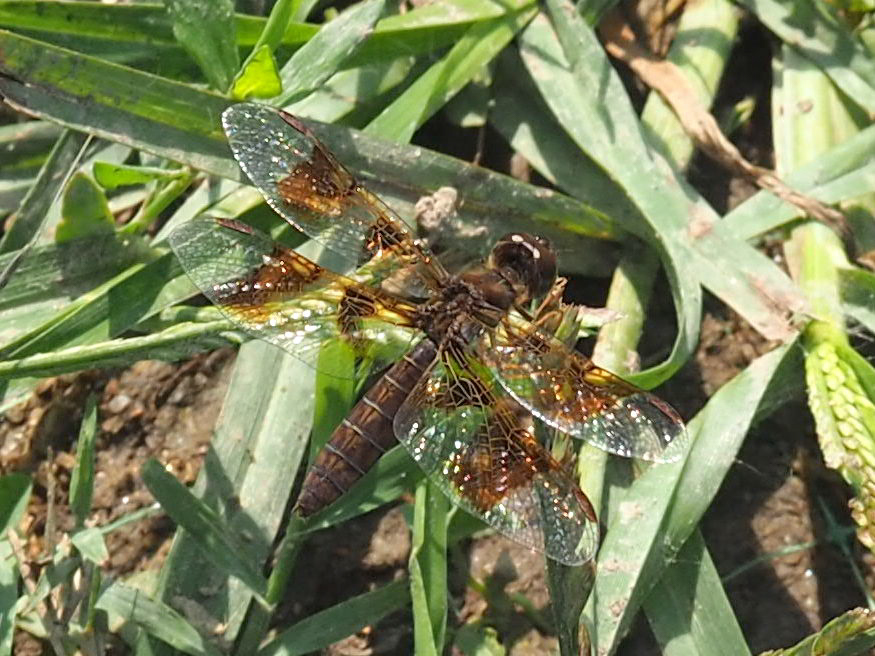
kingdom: Animalia
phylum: Arthropoda
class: Insecta
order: Odonata
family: Libellulidae
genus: Perithemis
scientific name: Perithemis tenera
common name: Eastern amberwing
